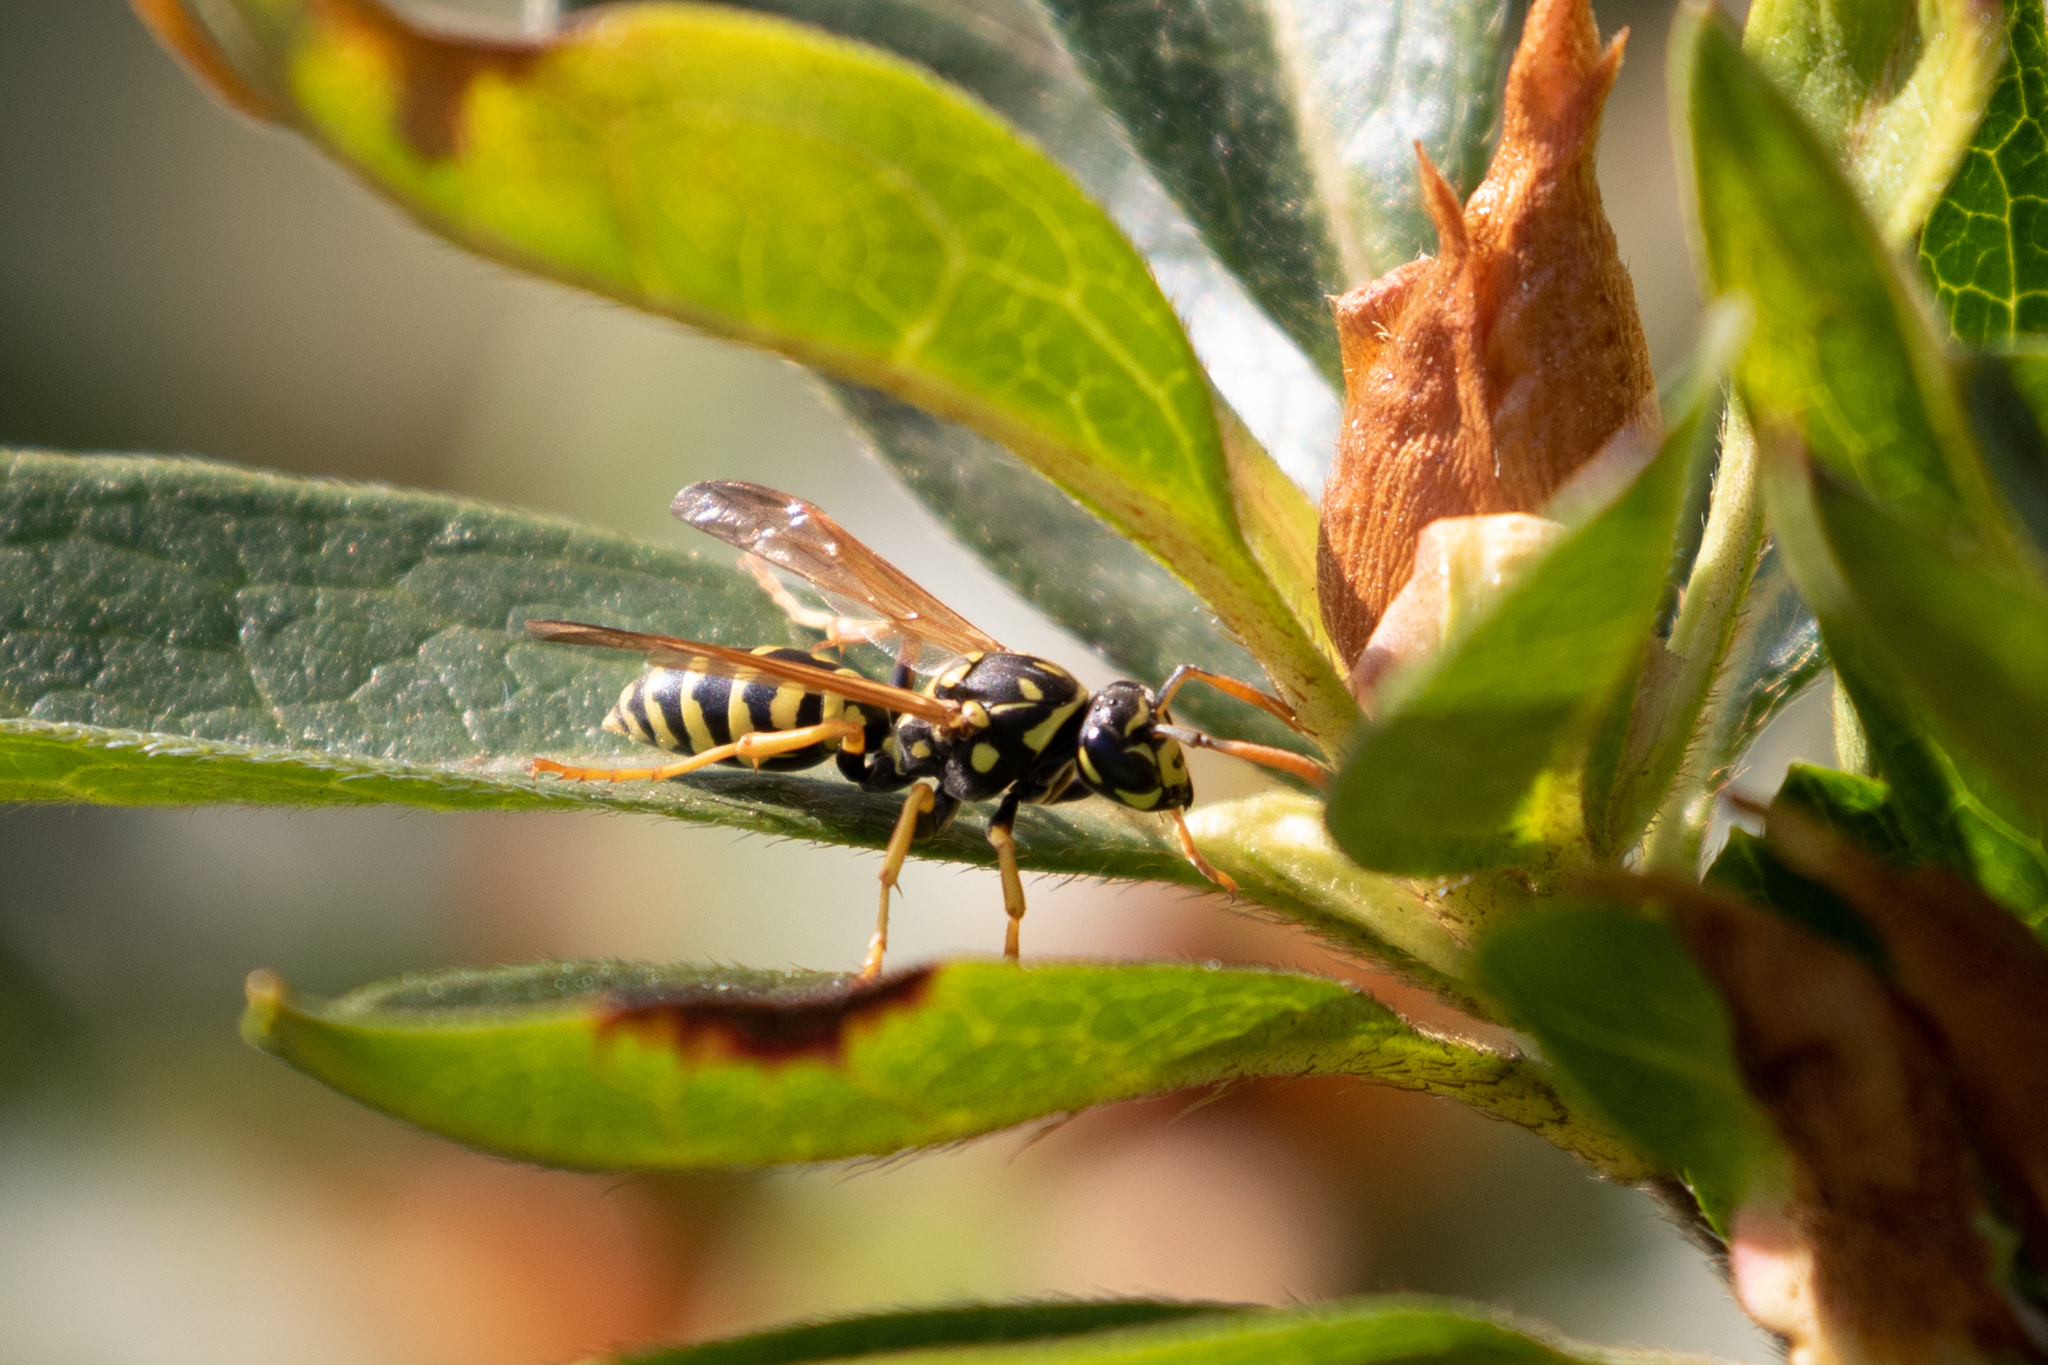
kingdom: Animalia
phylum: Arthropoda
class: Insecta
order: Hymenoptera
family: Eumenidae
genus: Polistes
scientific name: Polistes dominula
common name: Paper wasp
